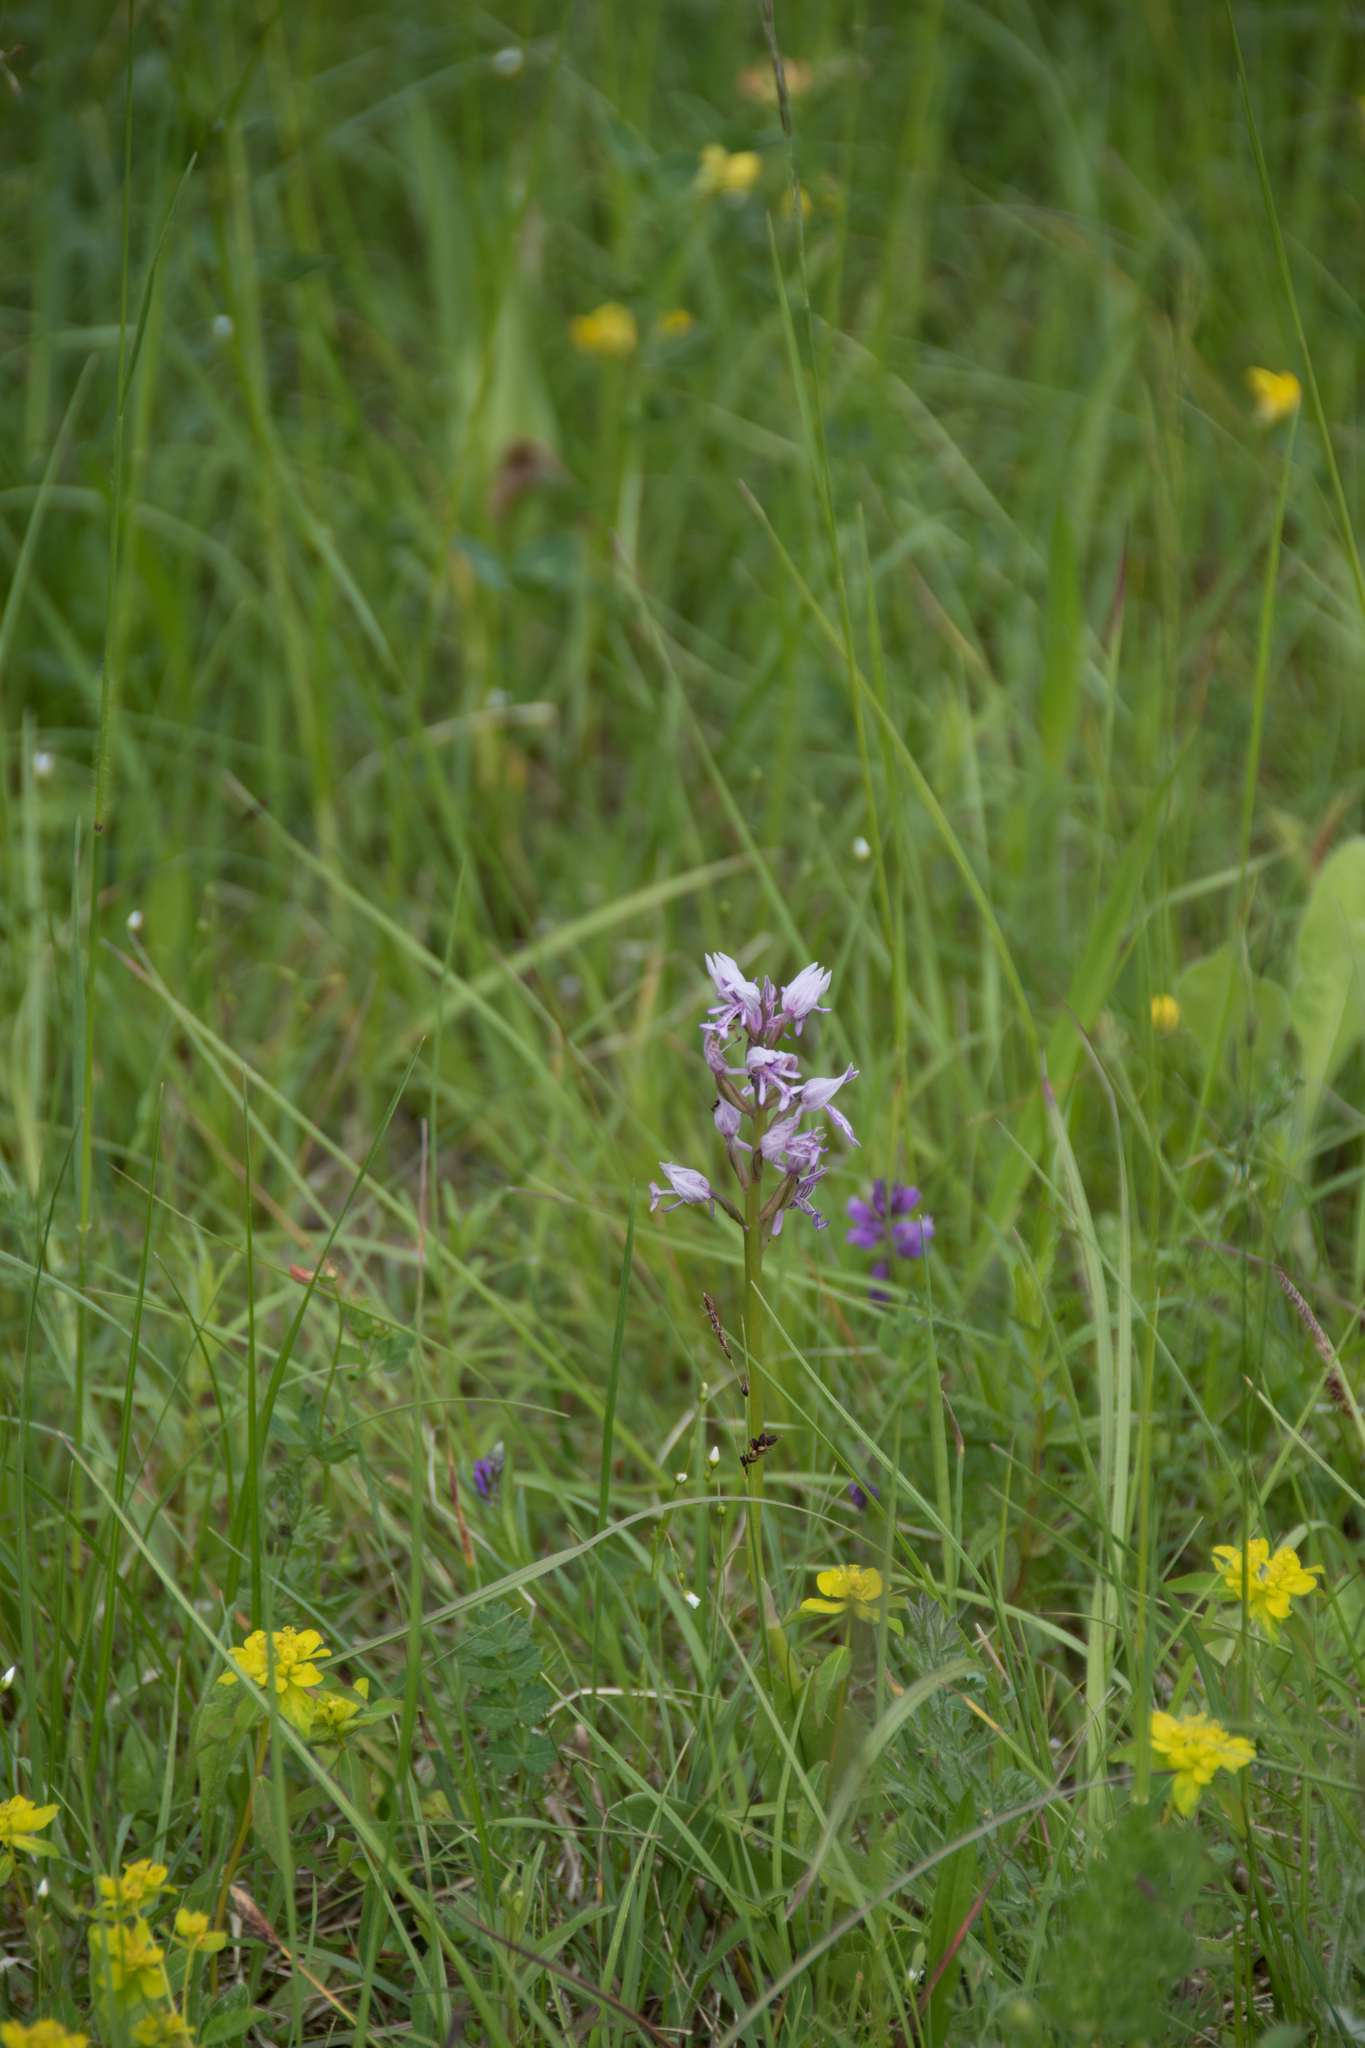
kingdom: Plantae
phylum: Tracheophyta
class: Liliopsida
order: Asparagales
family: Orchidaceae
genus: Orchis
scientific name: Orchis militaris
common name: Military orchid
